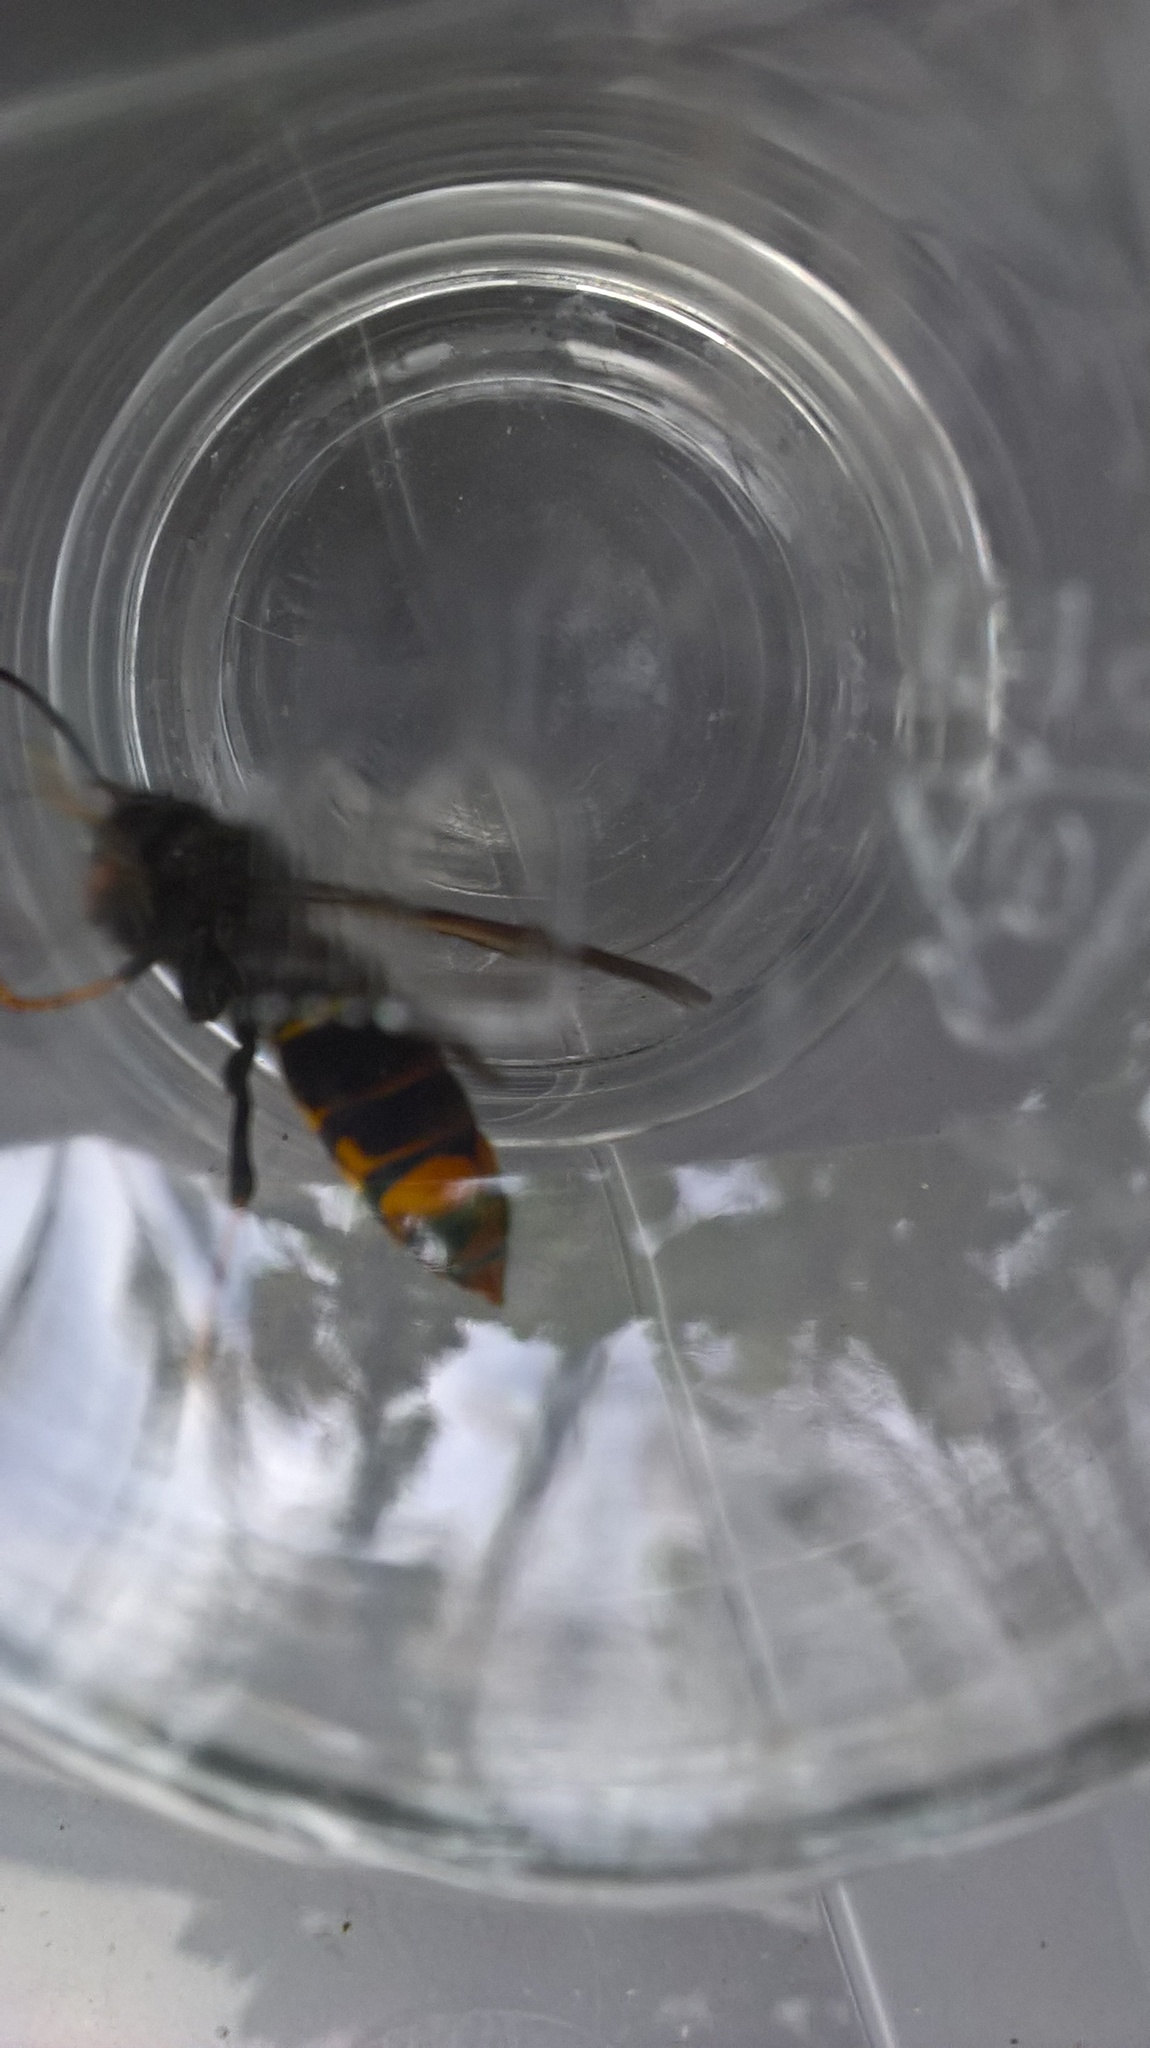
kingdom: Animalia
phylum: Arthropoda
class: Insecta
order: Hymenoptera
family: Vespidae
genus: Vespa
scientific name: Vespa velutina
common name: Asian hornet
